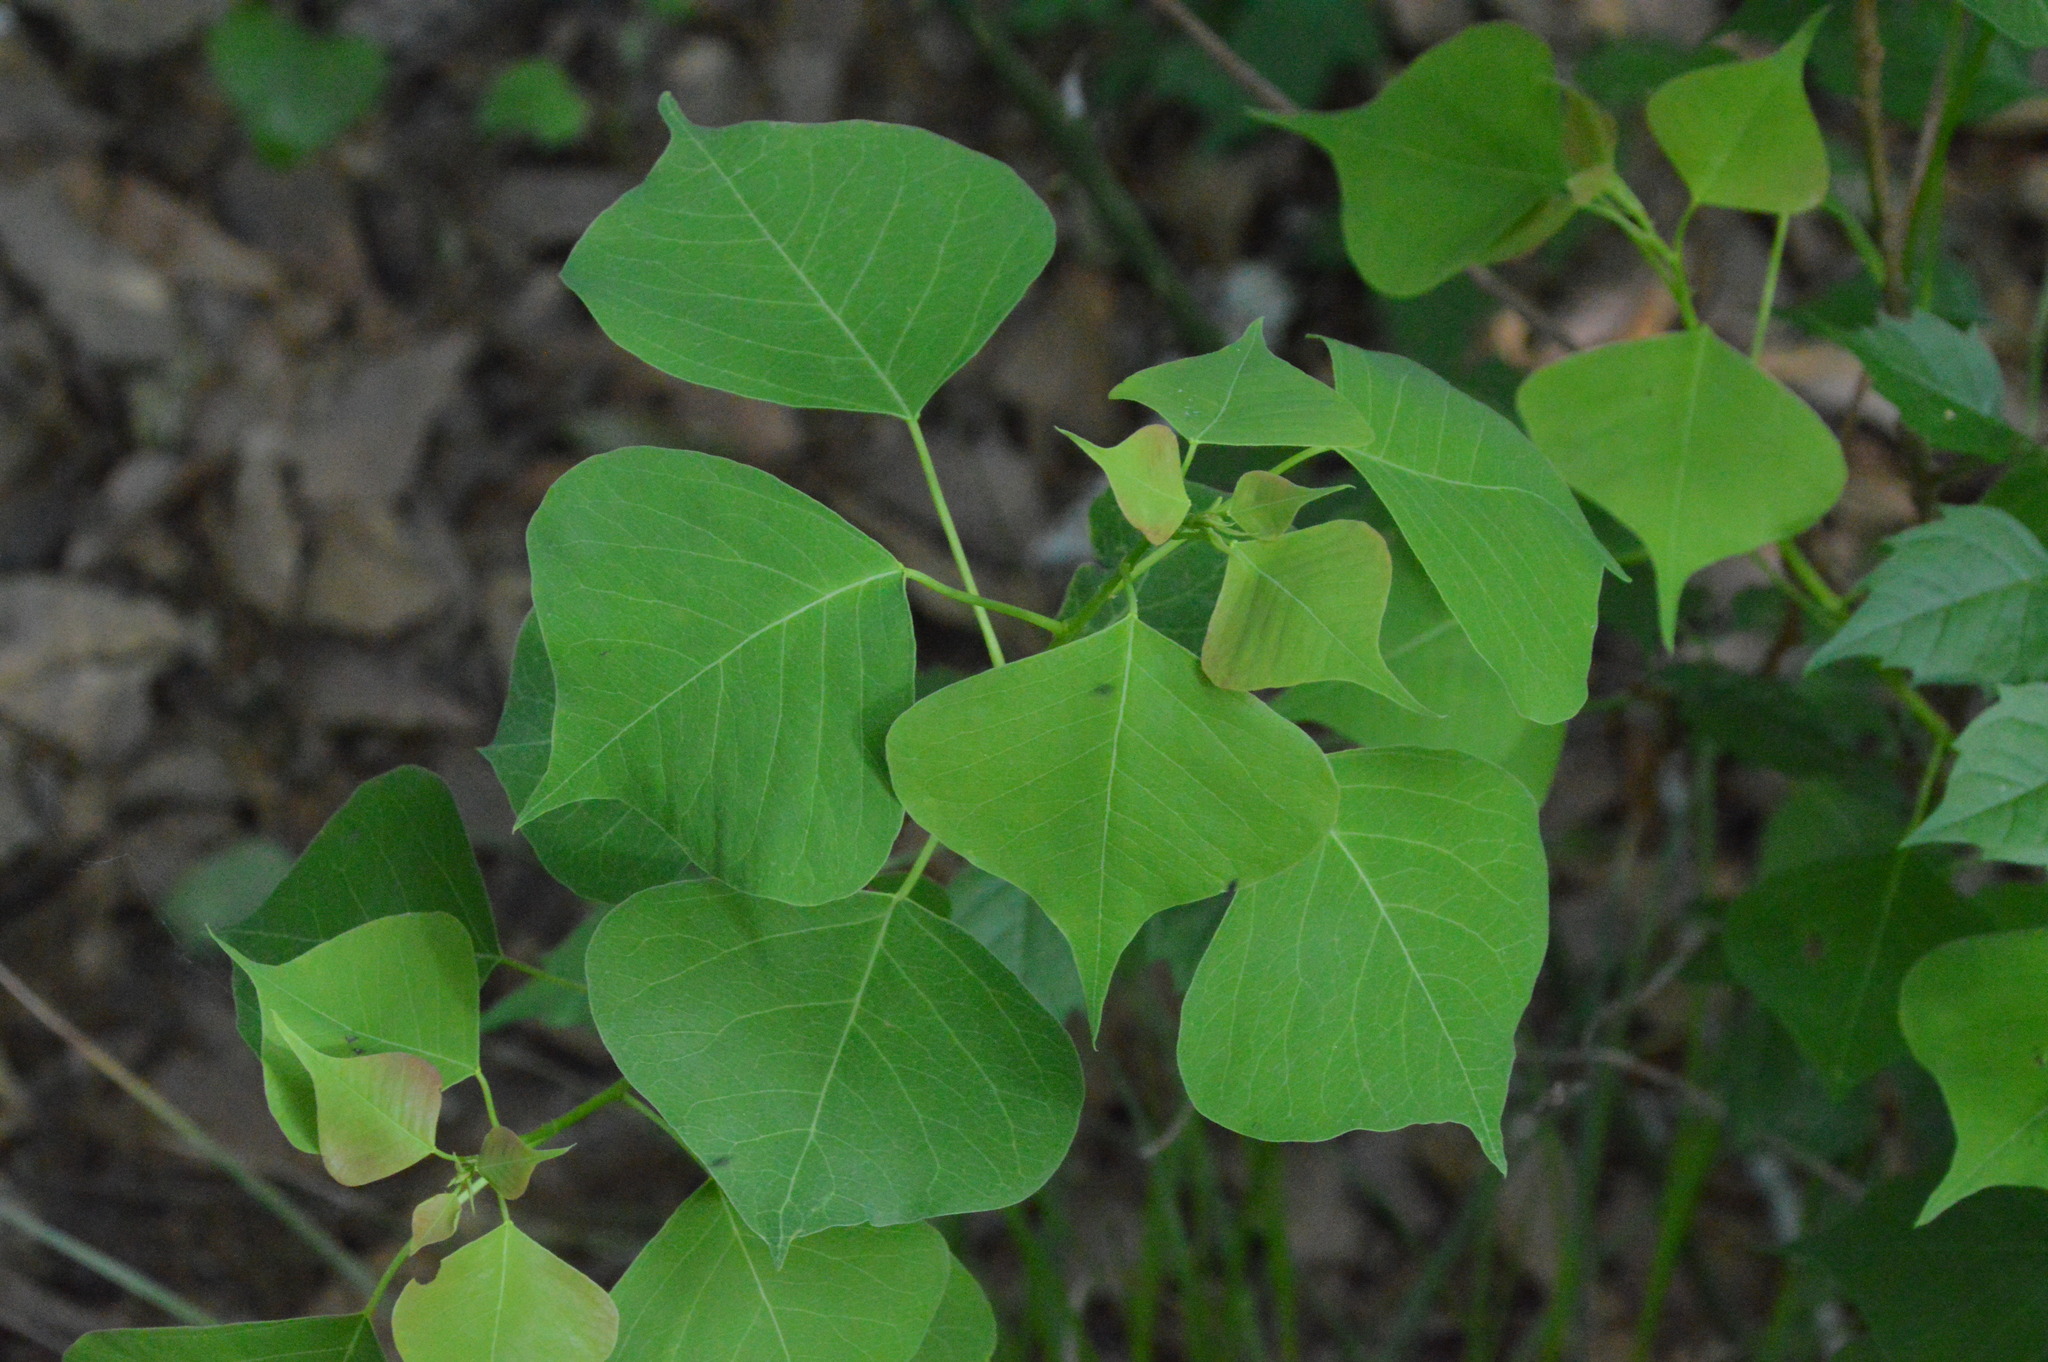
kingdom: Plantae
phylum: Tracheophyta
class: Magnoliopsida
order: Malpighiales
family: Euphorbiaceae
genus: Triadica
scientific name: Triadica sebifera
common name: Chinese tallow
